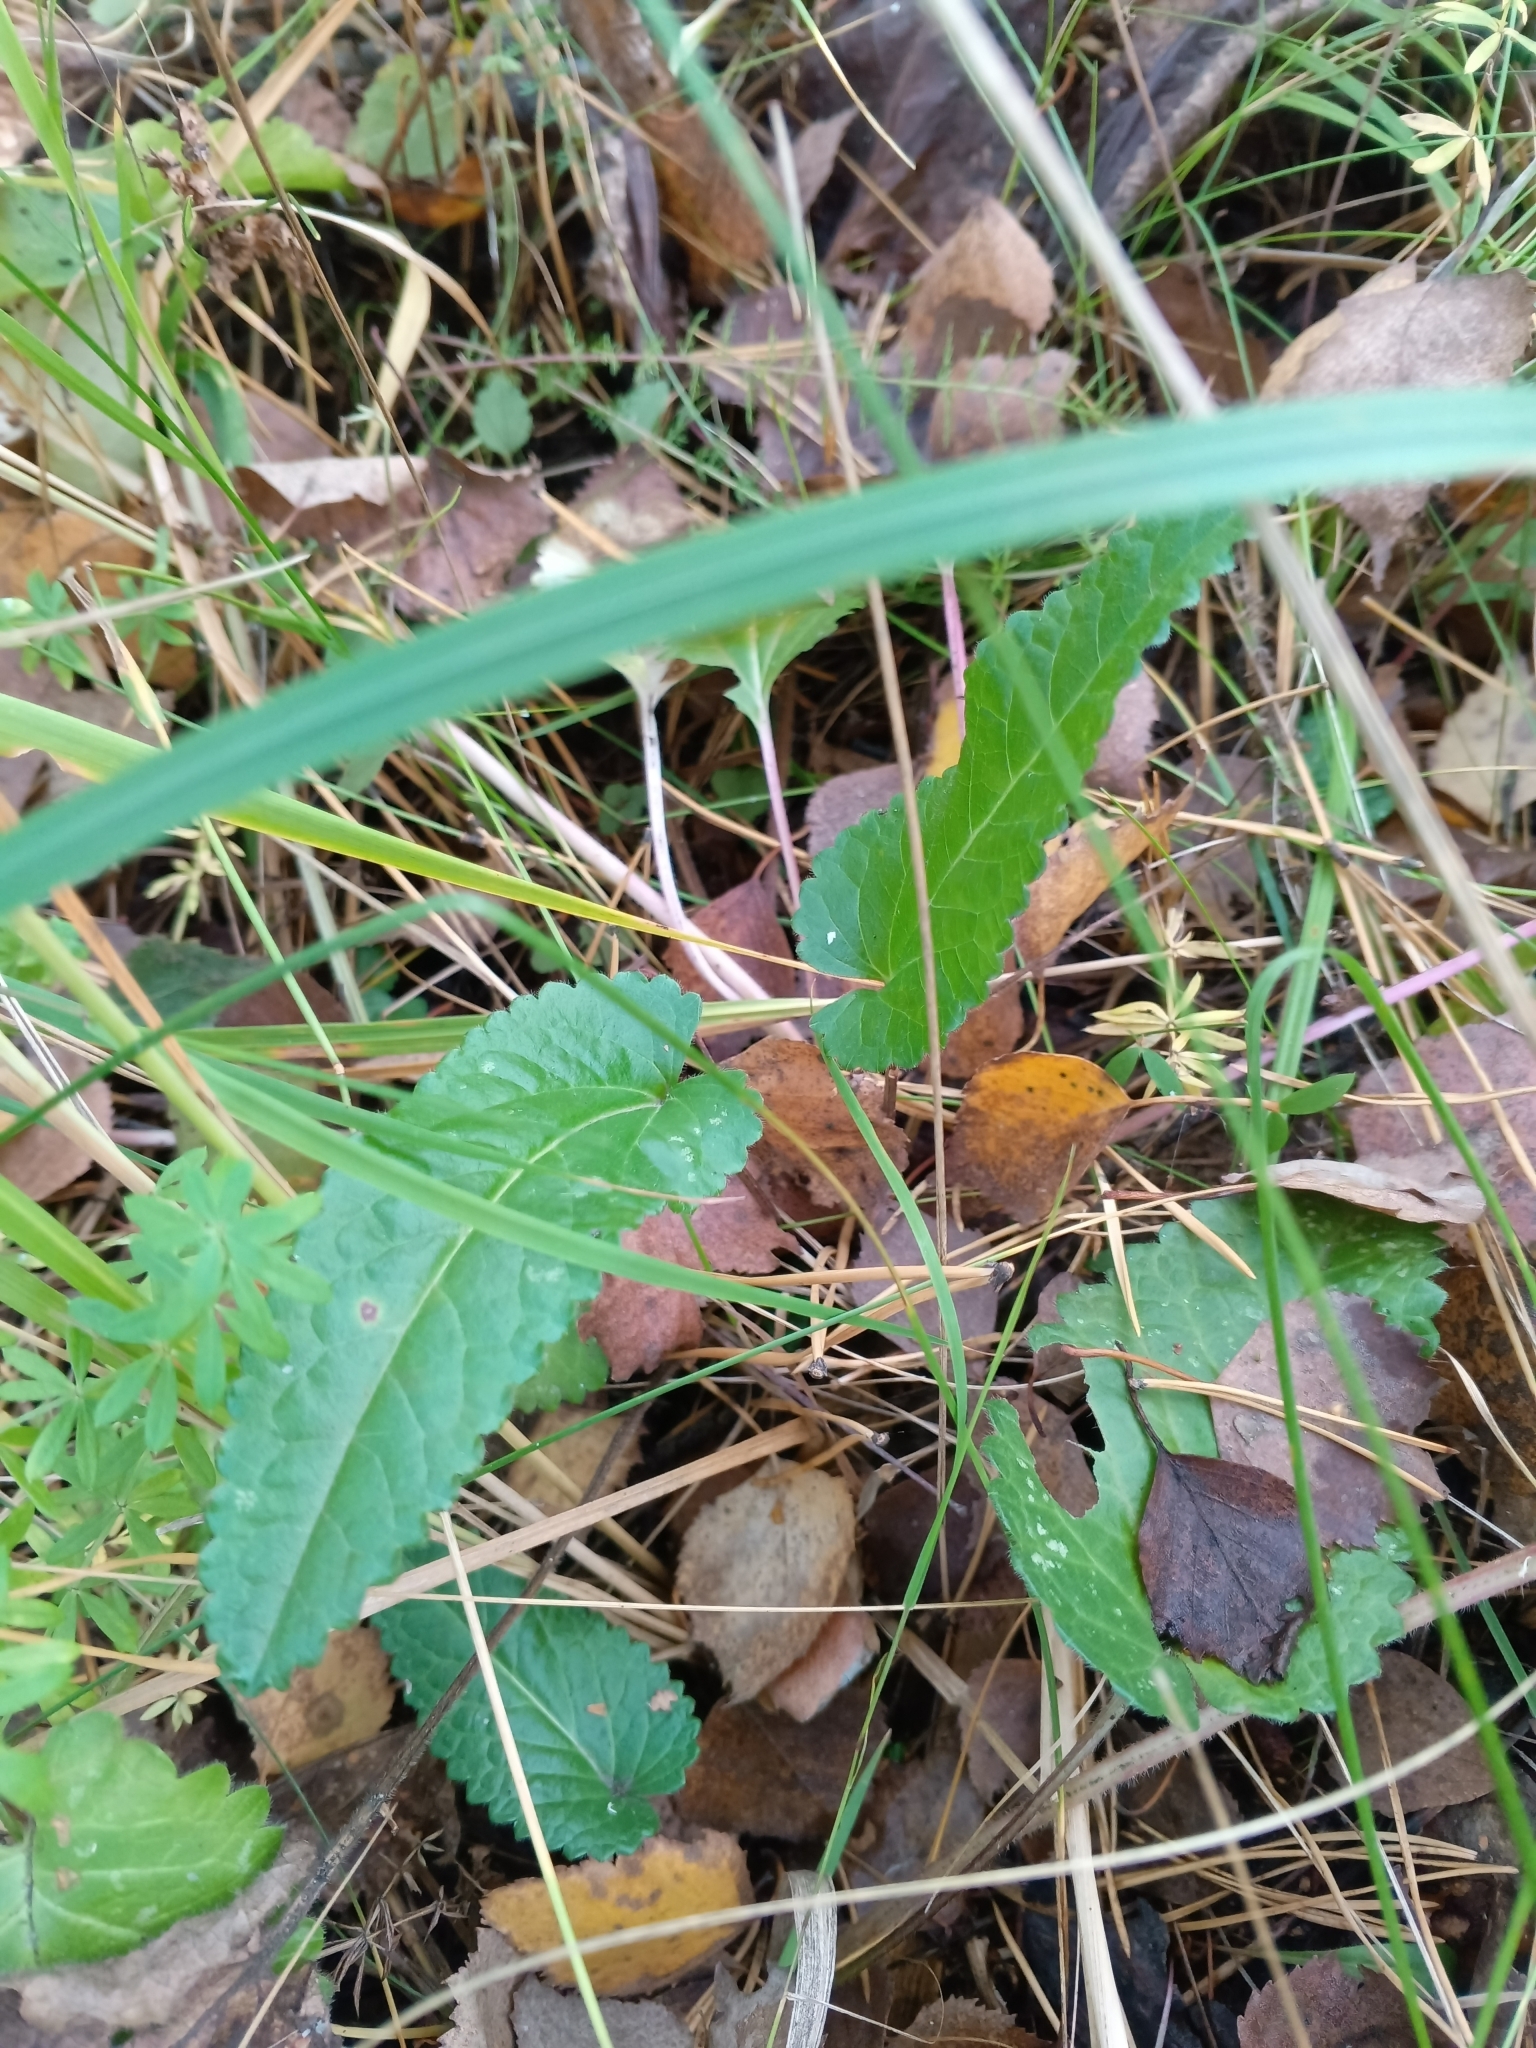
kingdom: Plantae
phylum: Tracheophyta
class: Magnoliopsida
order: Lamiales
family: Lamiaceae
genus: Betonica
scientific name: Betonica officinalis
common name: Bishop's-wort
